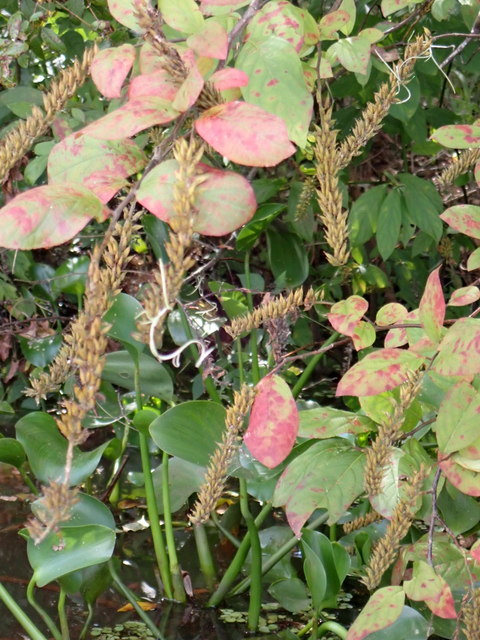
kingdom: Plantae
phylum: Tracheophyta
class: Magnoliopsida
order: Saxifragales
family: Iteaceae
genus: Itea
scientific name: Itea virginica
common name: Sweetspire
